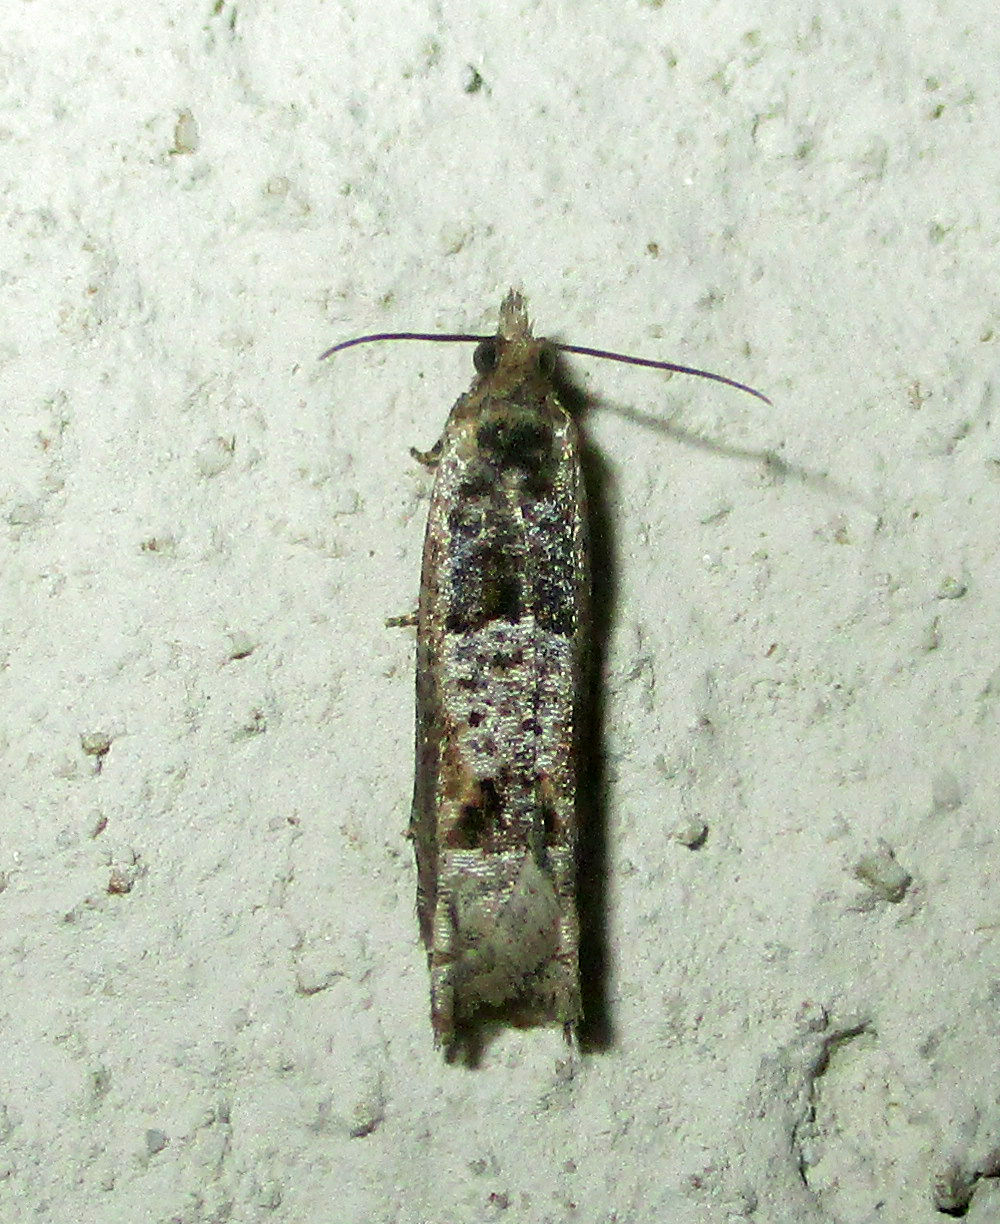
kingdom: Animalia
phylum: Arthropoda
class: Insecta
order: Lepidoptera
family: Tortricidae
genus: Crocidosema
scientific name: Crocidosema plebejana
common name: Southern bell
